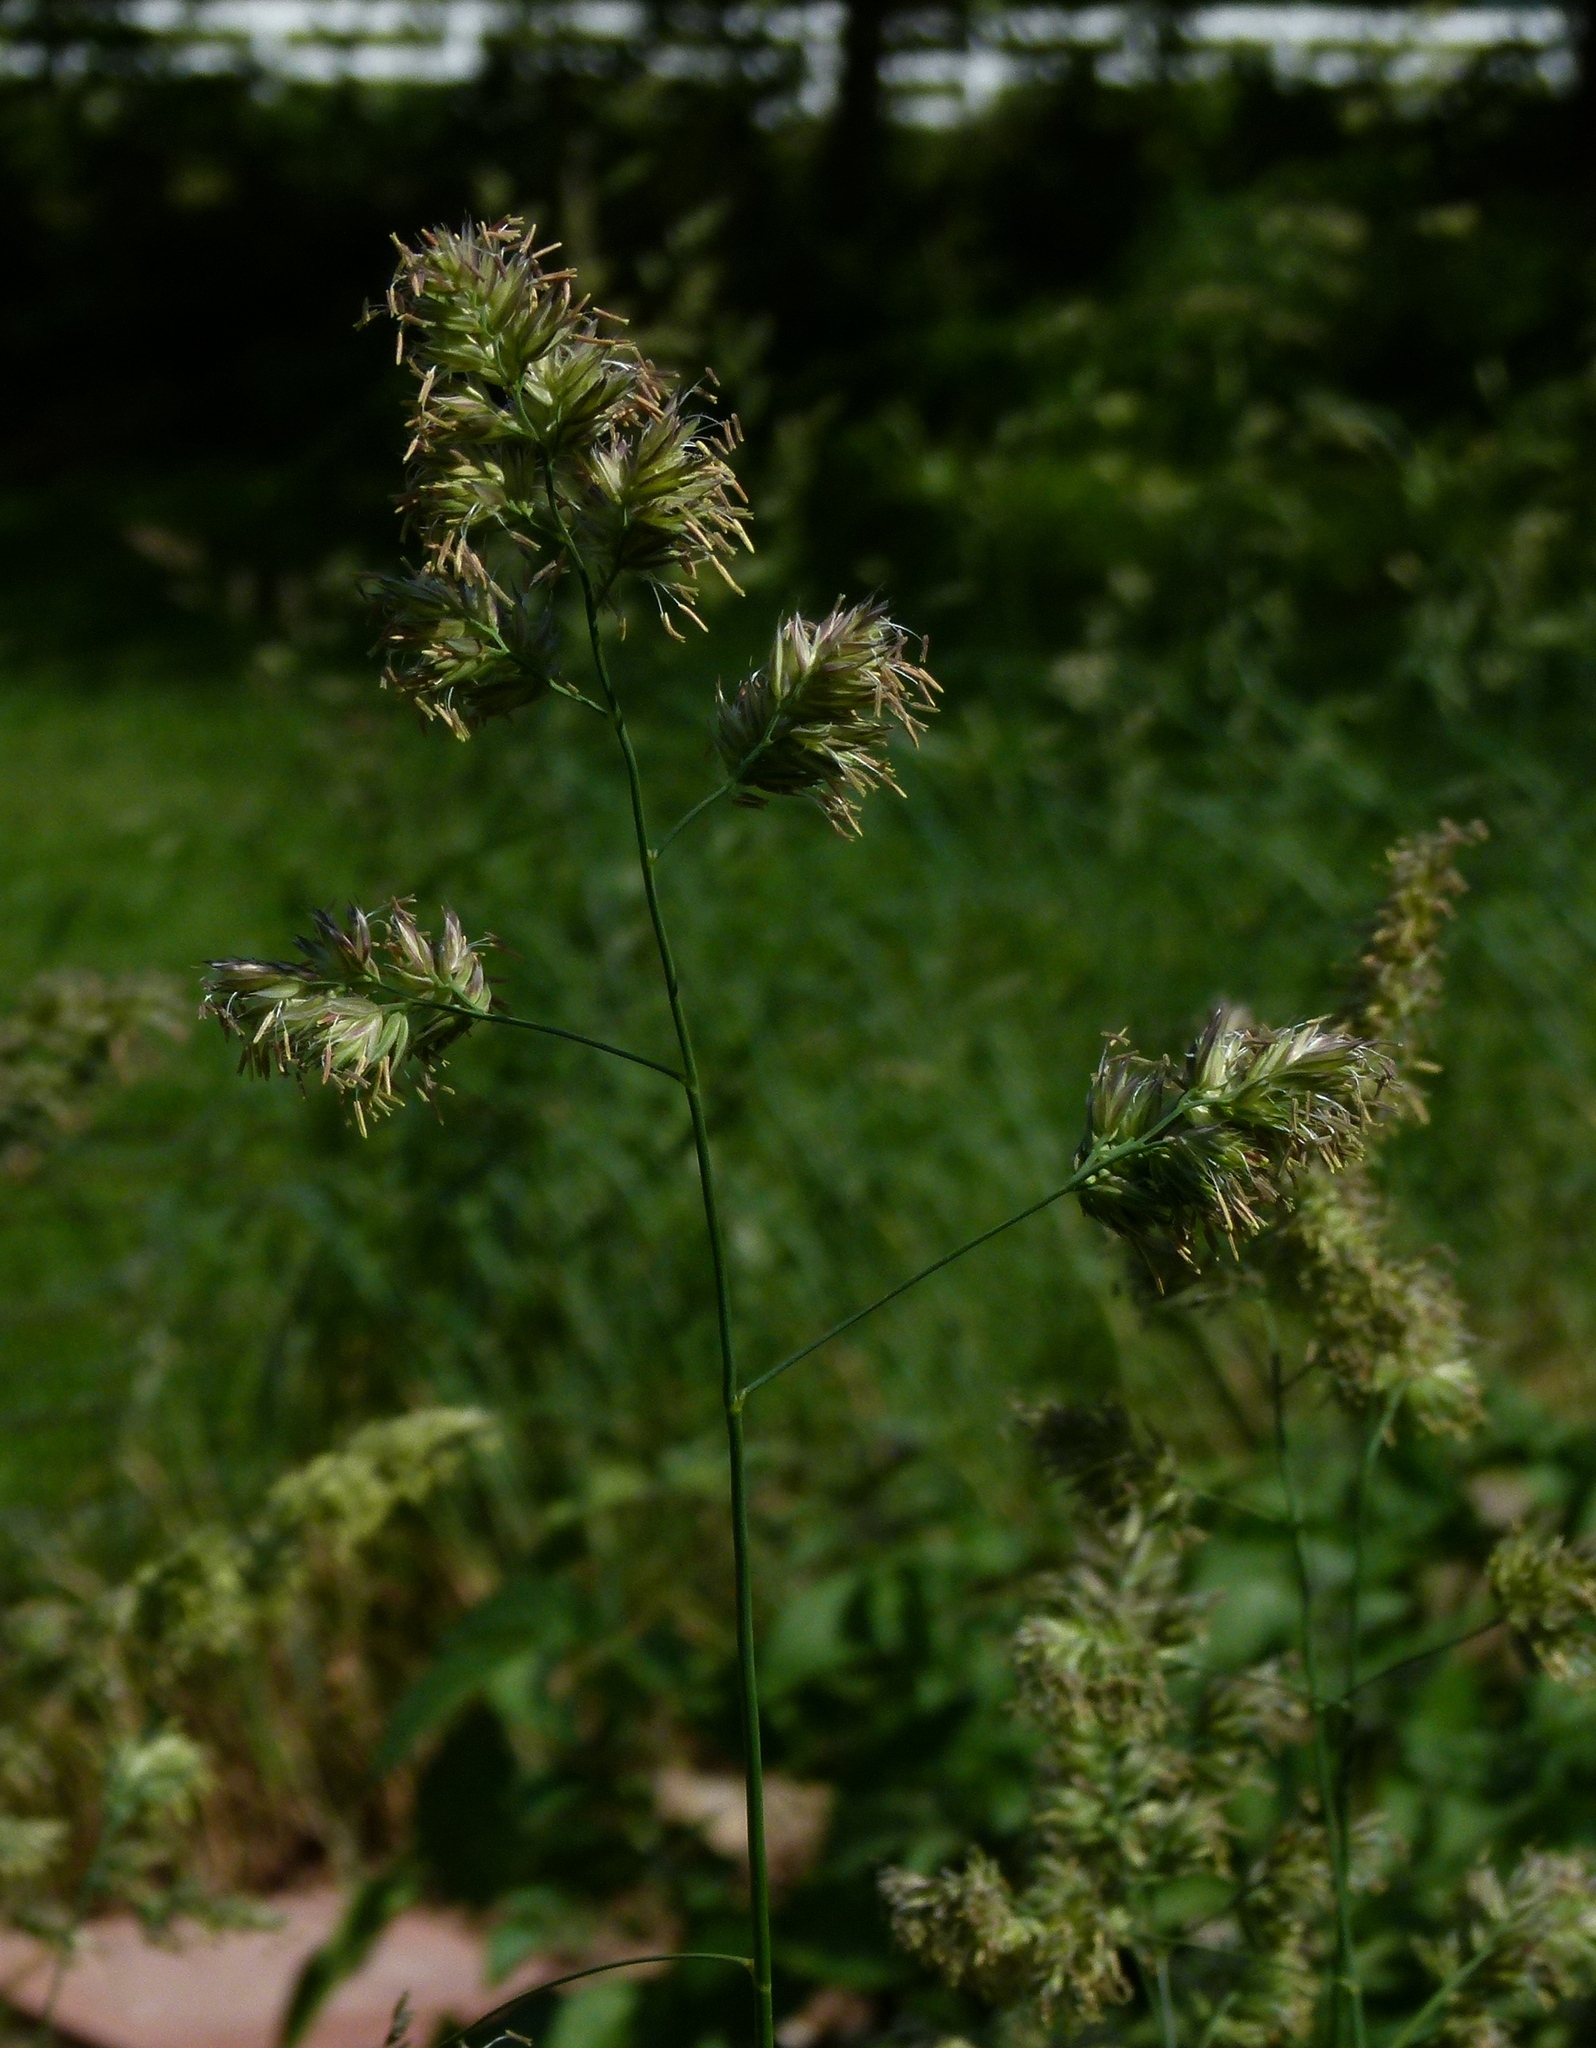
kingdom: Plantae
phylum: Tracheophyta
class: Liliopsida
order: Poales
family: Poaceae
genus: Dactylis
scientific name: Dactylis glomerata
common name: Orchardgrass
